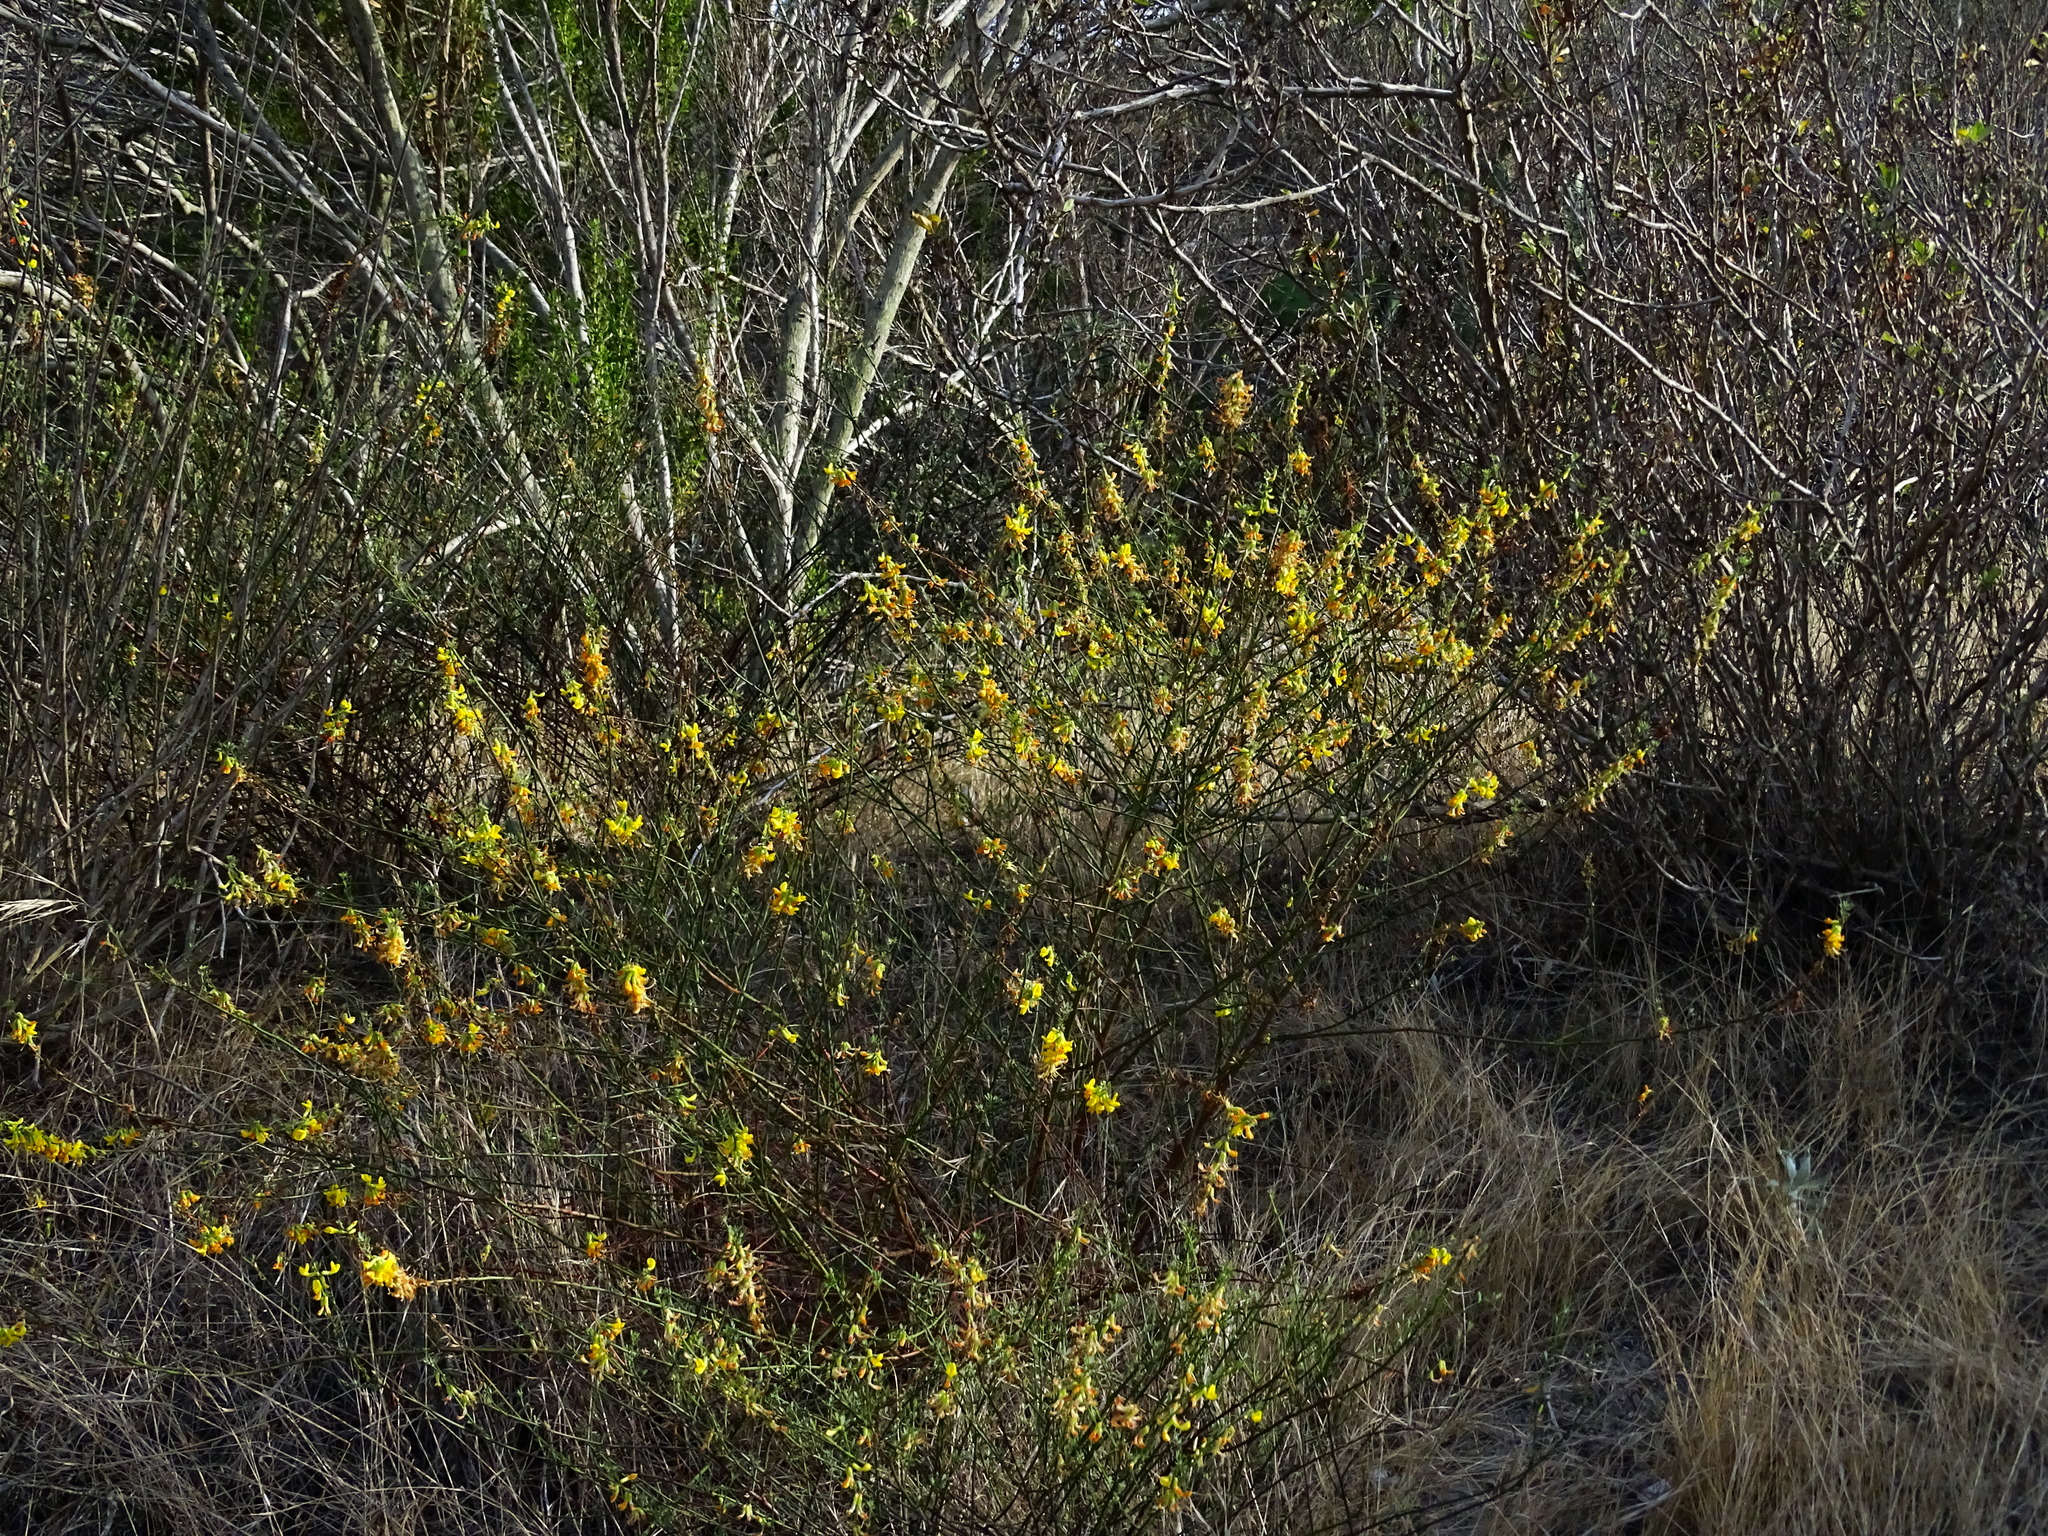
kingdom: Plantae
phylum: Tracheophyta
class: Magnoliopsida
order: Fabales
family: Fabaceae
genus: Acmispon
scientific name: Acmispon glaber
